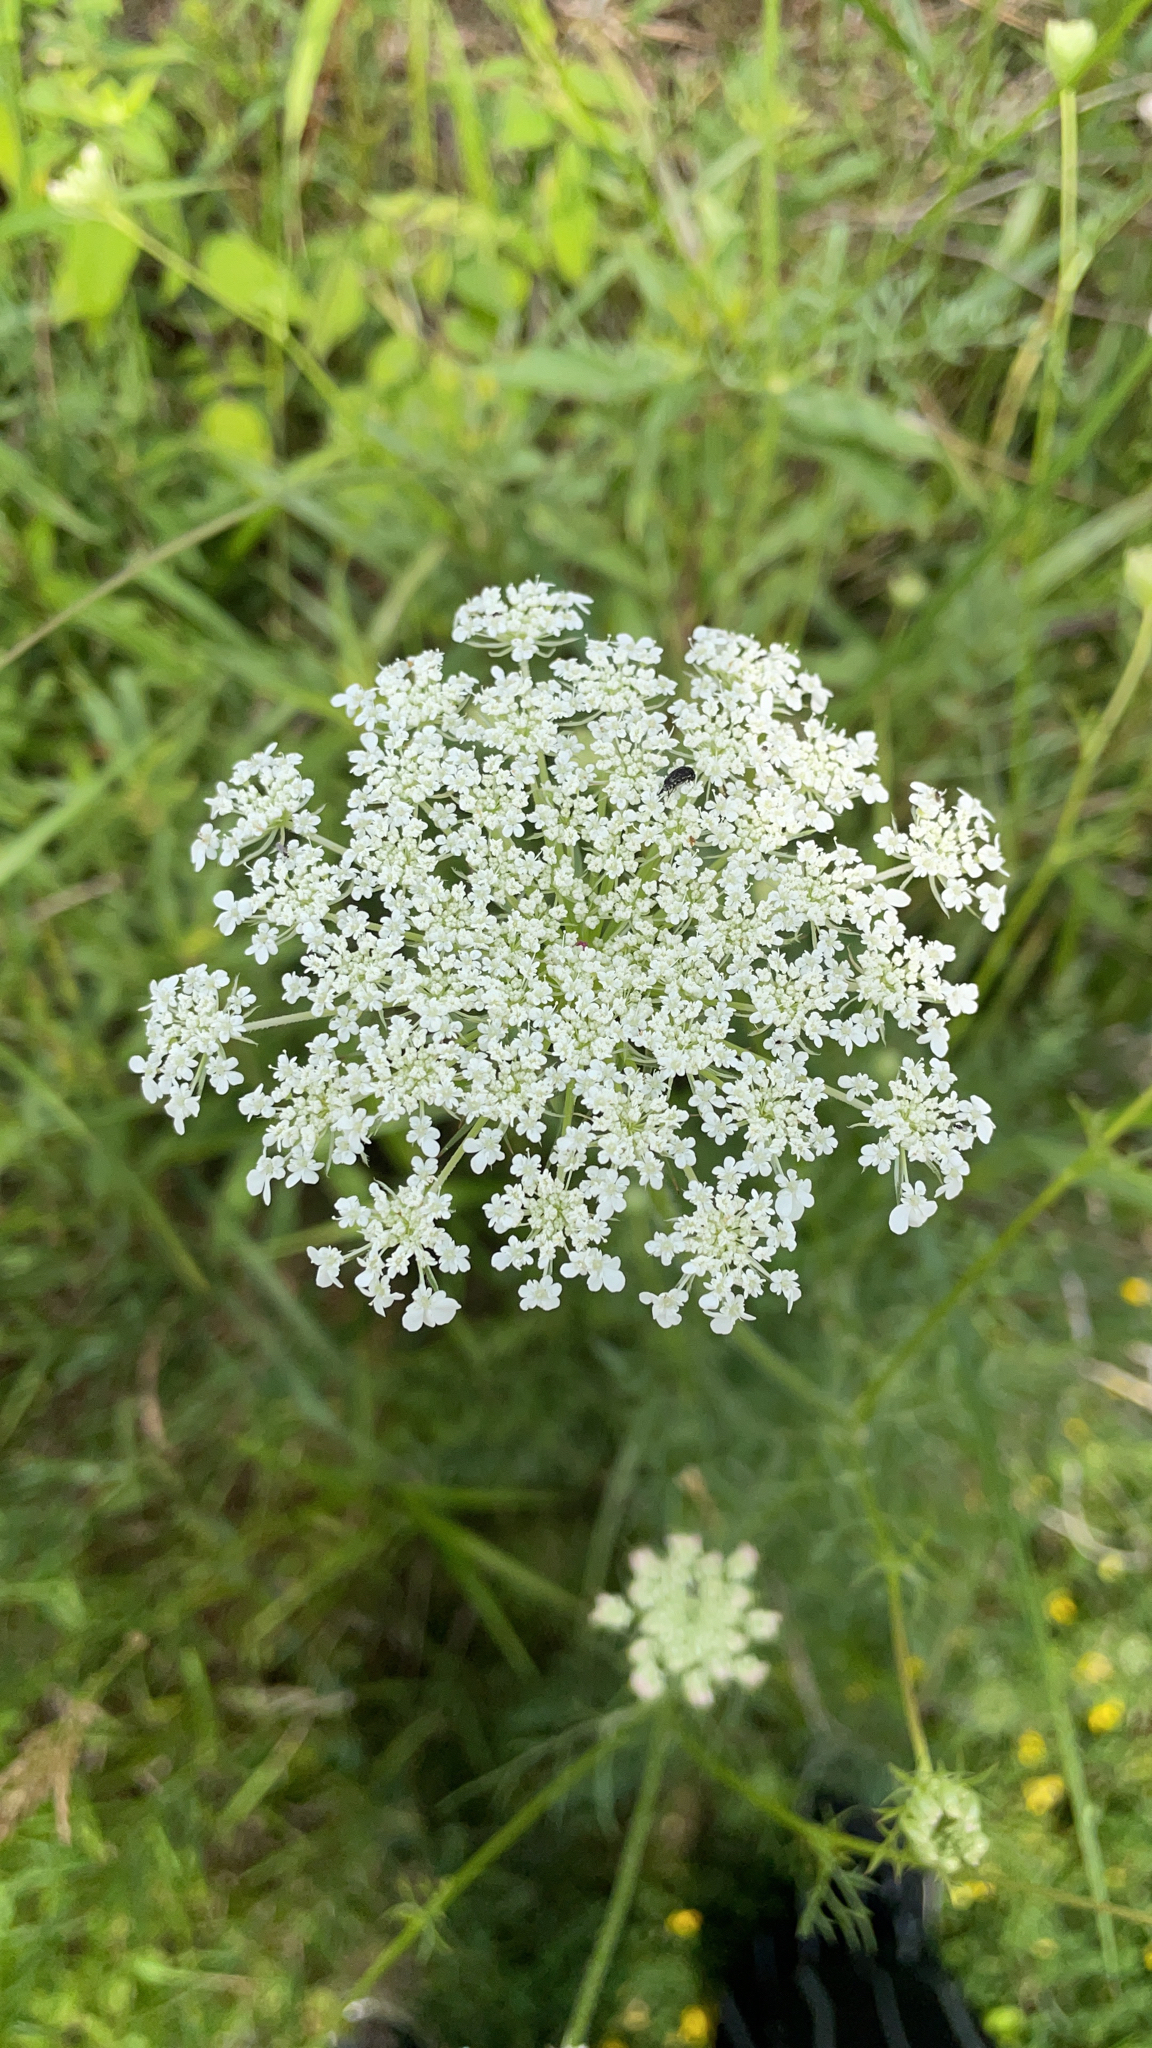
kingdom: Plantae
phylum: Tracheophyta
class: Magnoliopsida
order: Apiales
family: Apiaceae
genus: Daucus
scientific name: Daucus carota
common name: Wild carrot
